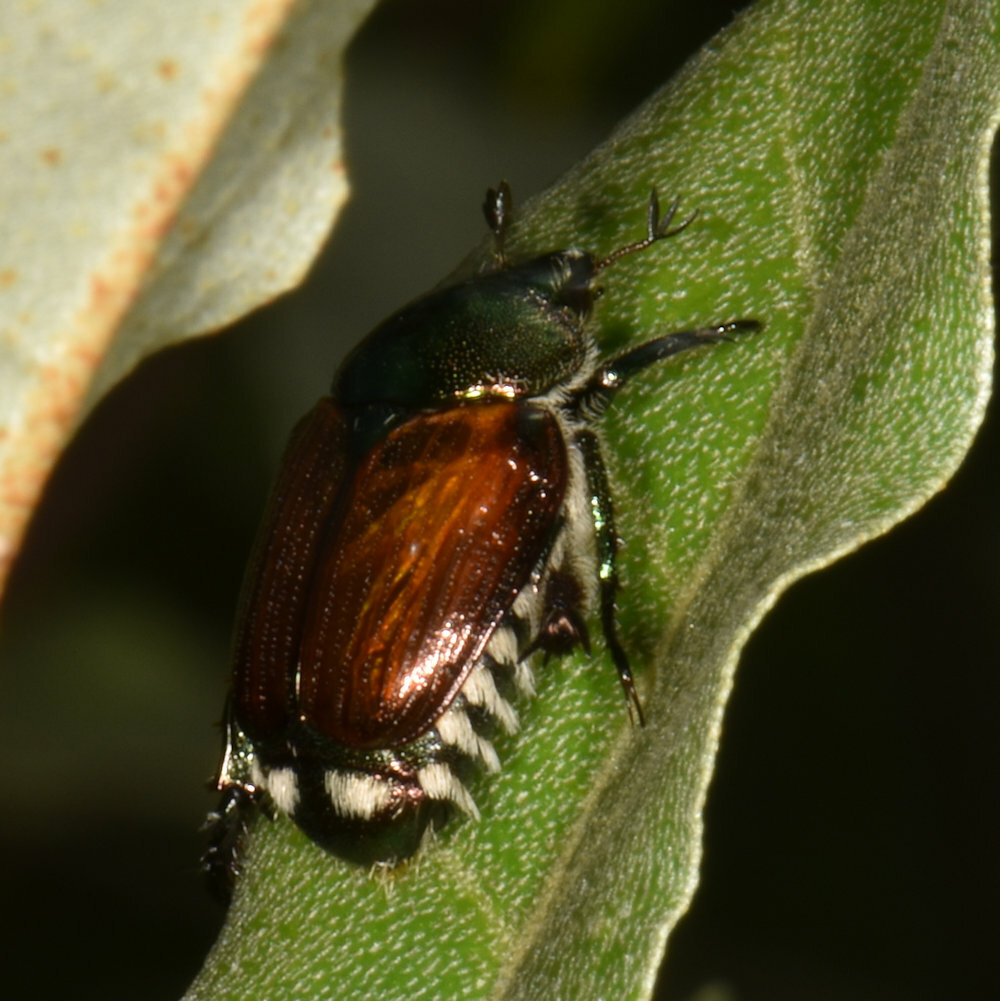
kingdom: Animalia
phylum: Arthropoda
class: Insecta
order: Coleoptera
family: Scarabaeidae
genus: Popillia
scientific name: Popillia japonica
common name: Japanese beetle
